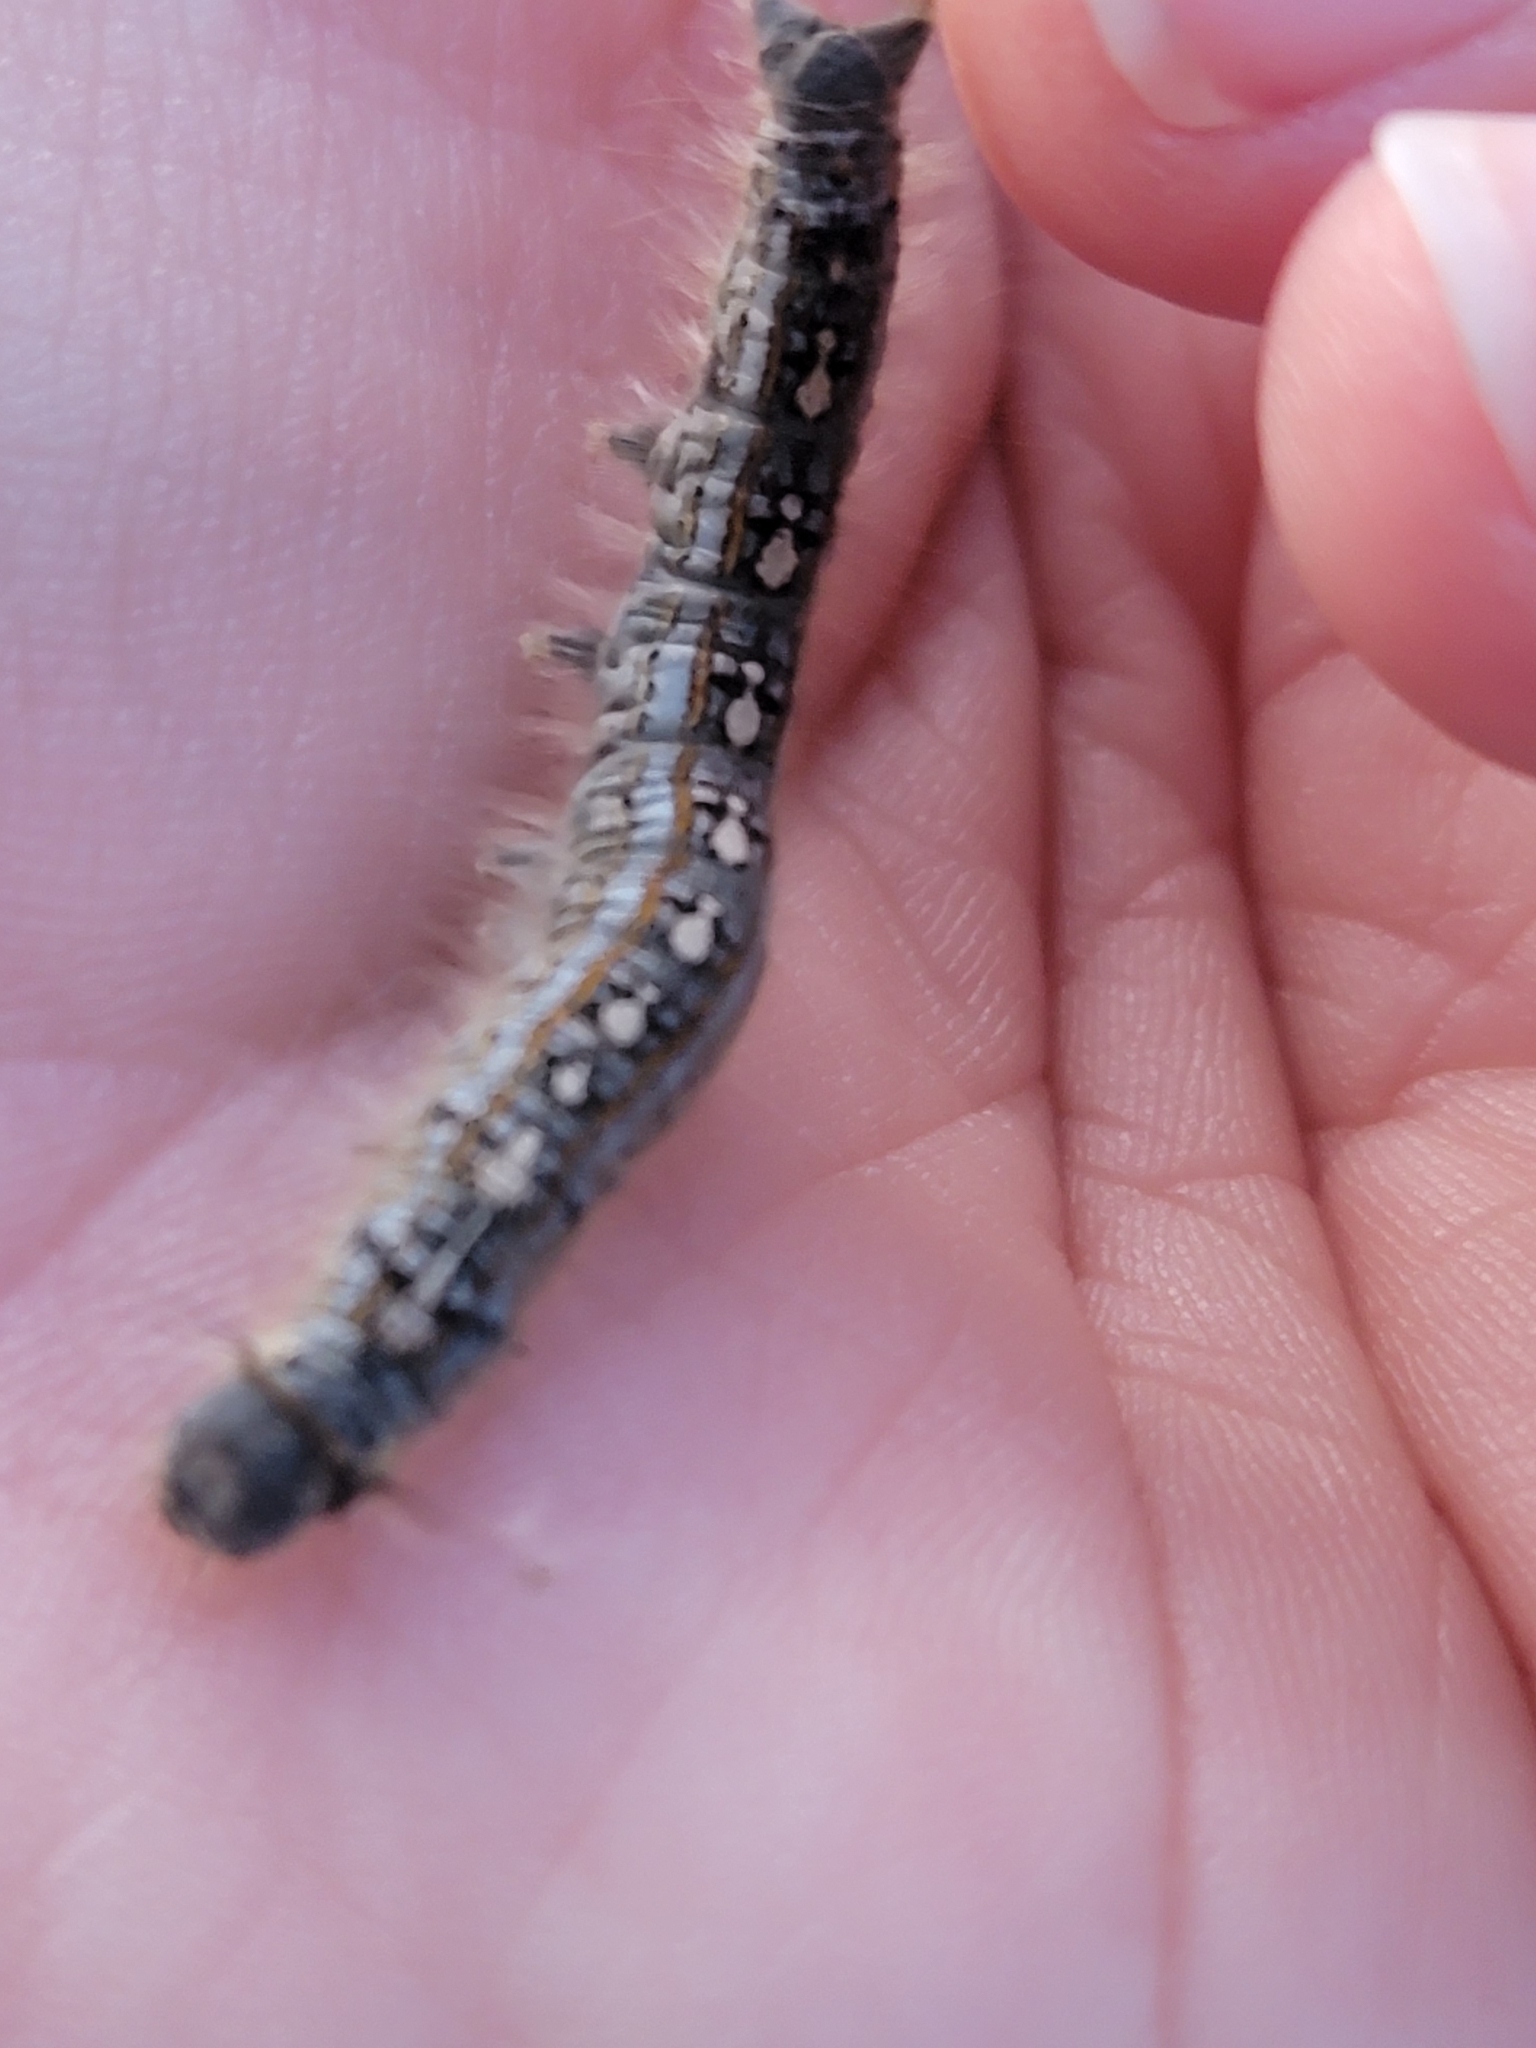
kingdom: Animalia
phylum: Arthropoda
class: Insecta
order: Lepidoptera
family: Lasiocampidae
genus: Malacosoma
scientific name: Malacosoma disstria
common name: Forest tent caterpillar
